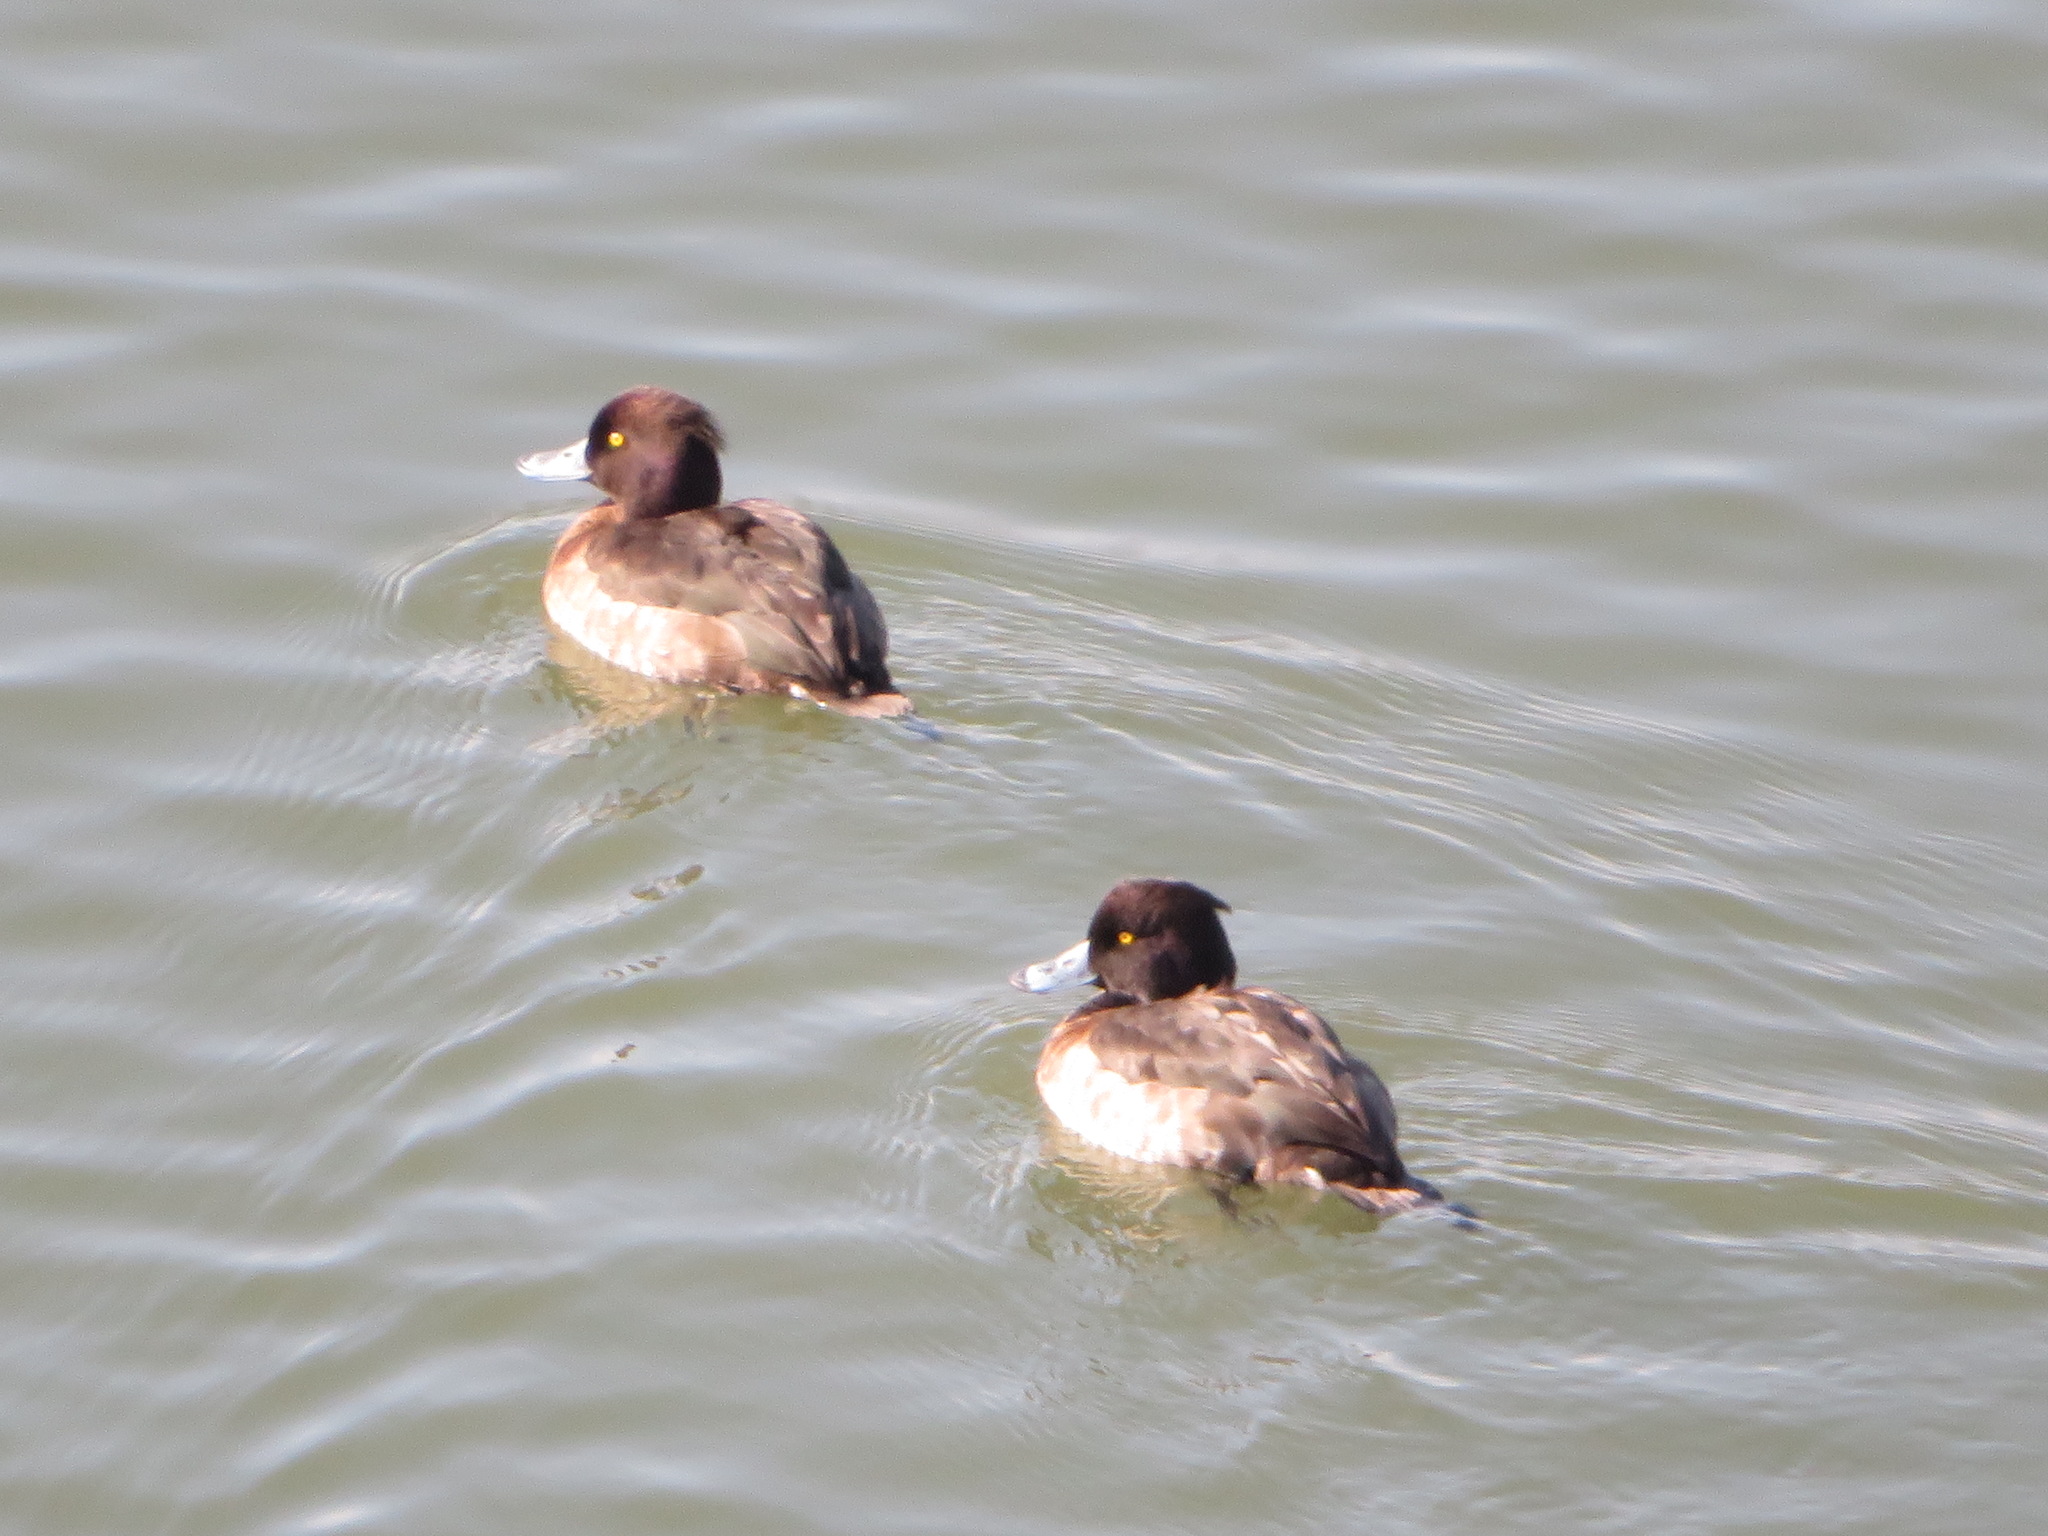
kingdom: Animalia
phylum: Chordata
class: Aves
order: Anseriformes
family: Anatidae
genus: Aythya
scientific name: Aythya fuligula
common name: Tufted duck
